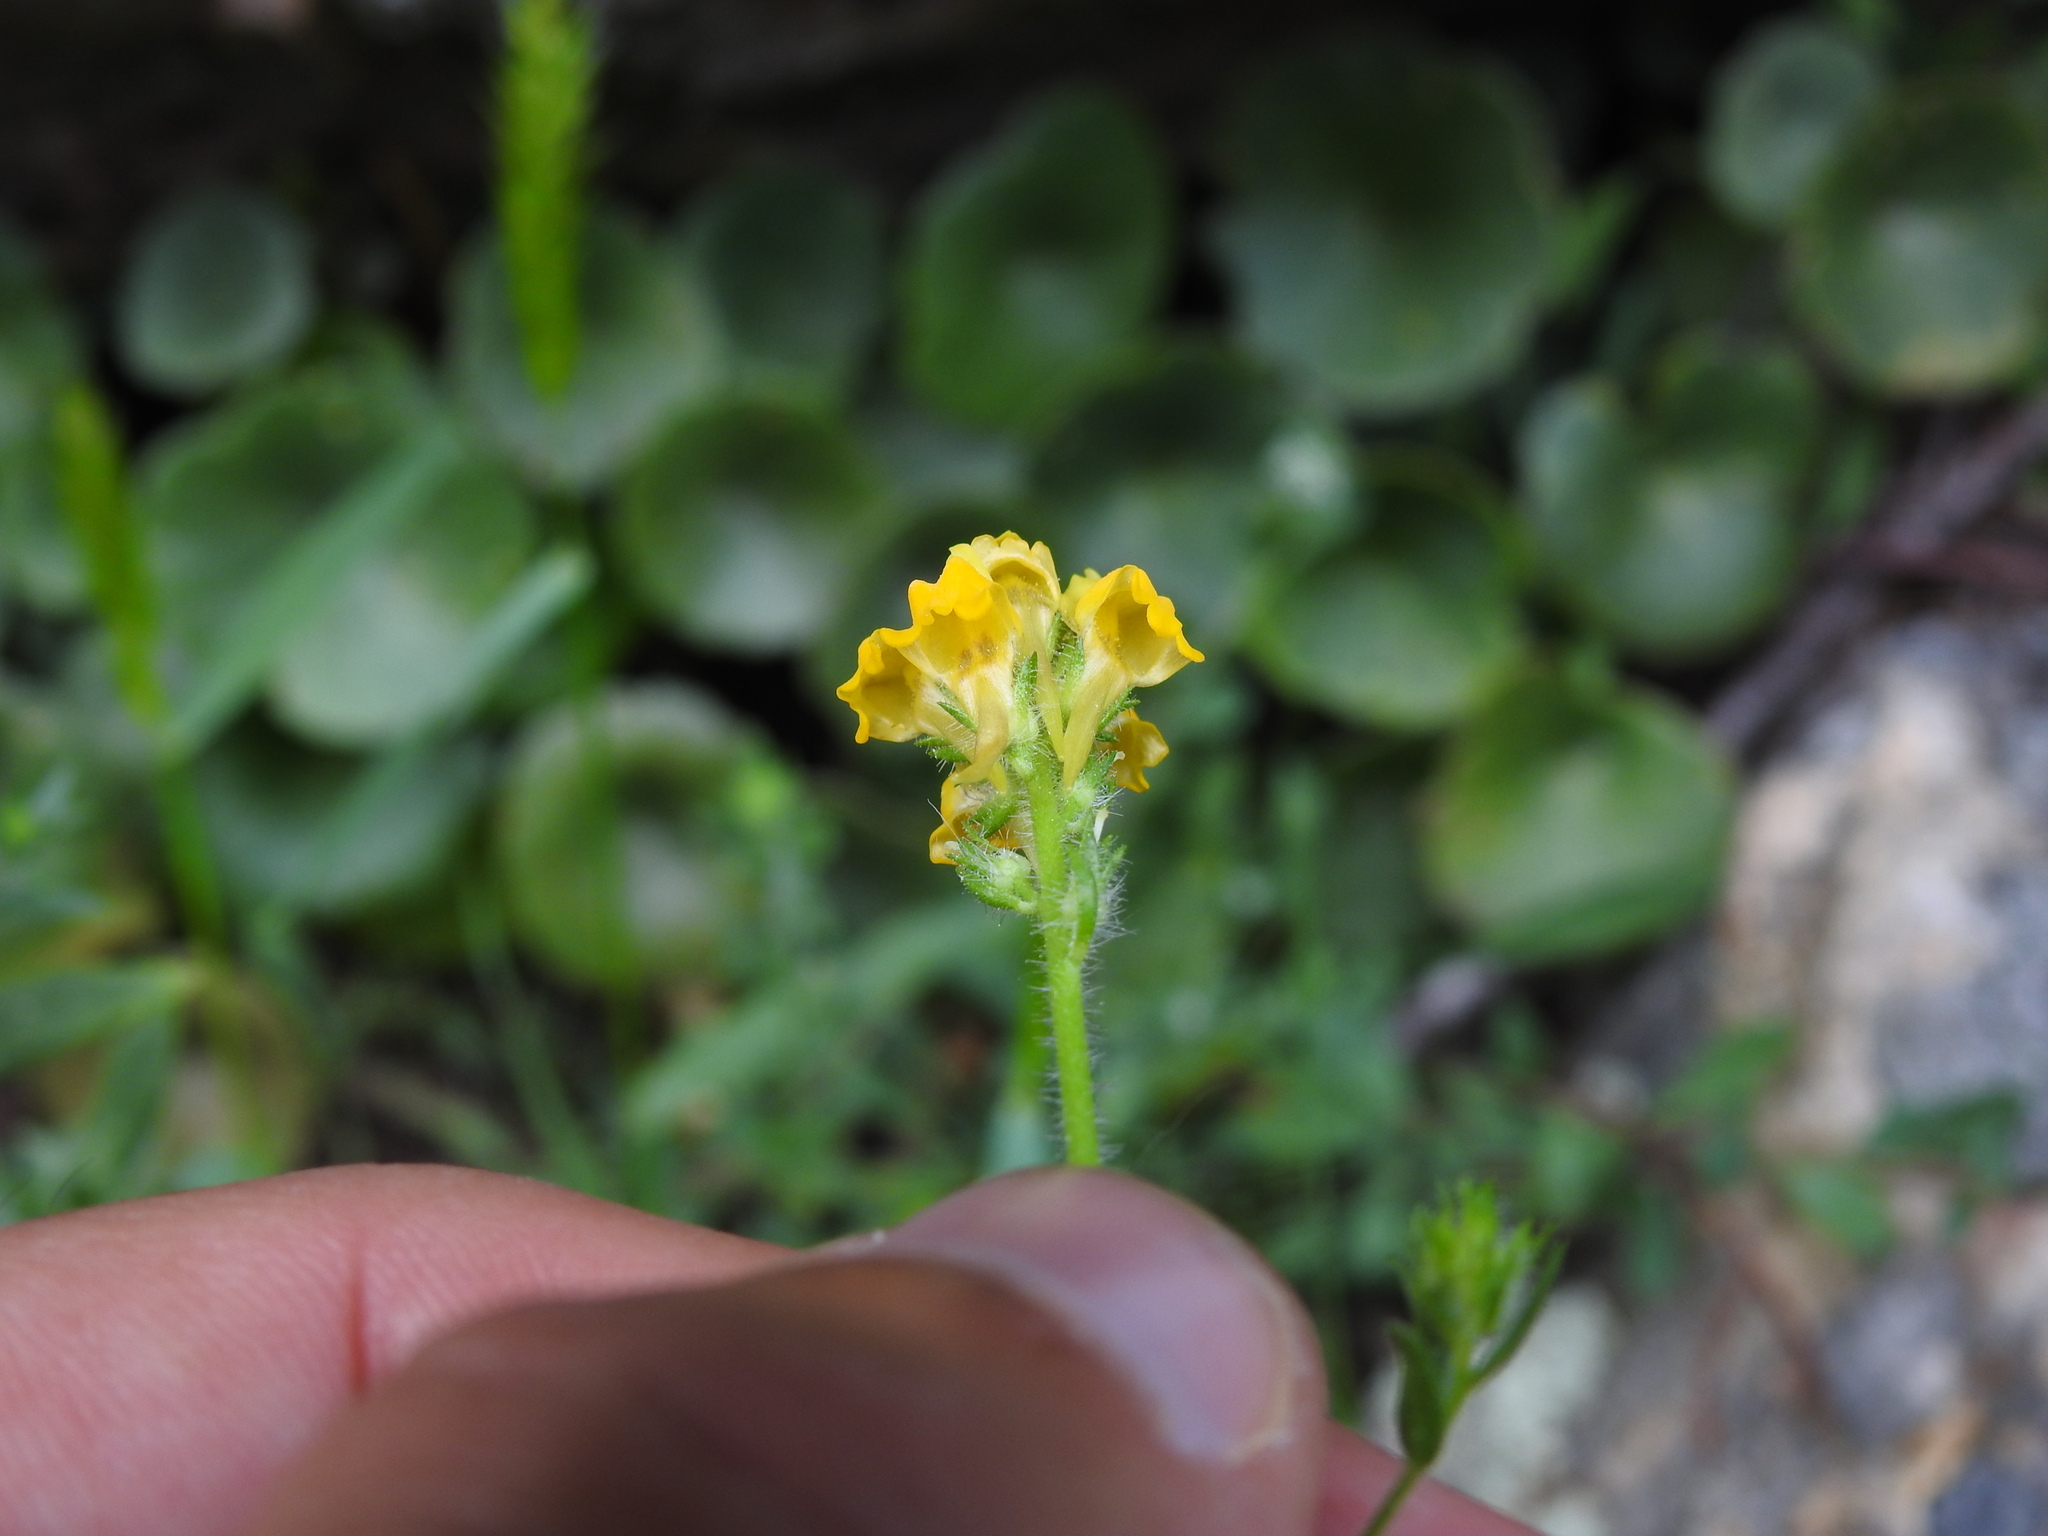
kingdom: Plantae
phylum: Tracheophyta
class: Magnoliopsida
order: Lamiales
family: Plantaginaceae
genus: Linaria
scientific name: Linaria saxatilis
